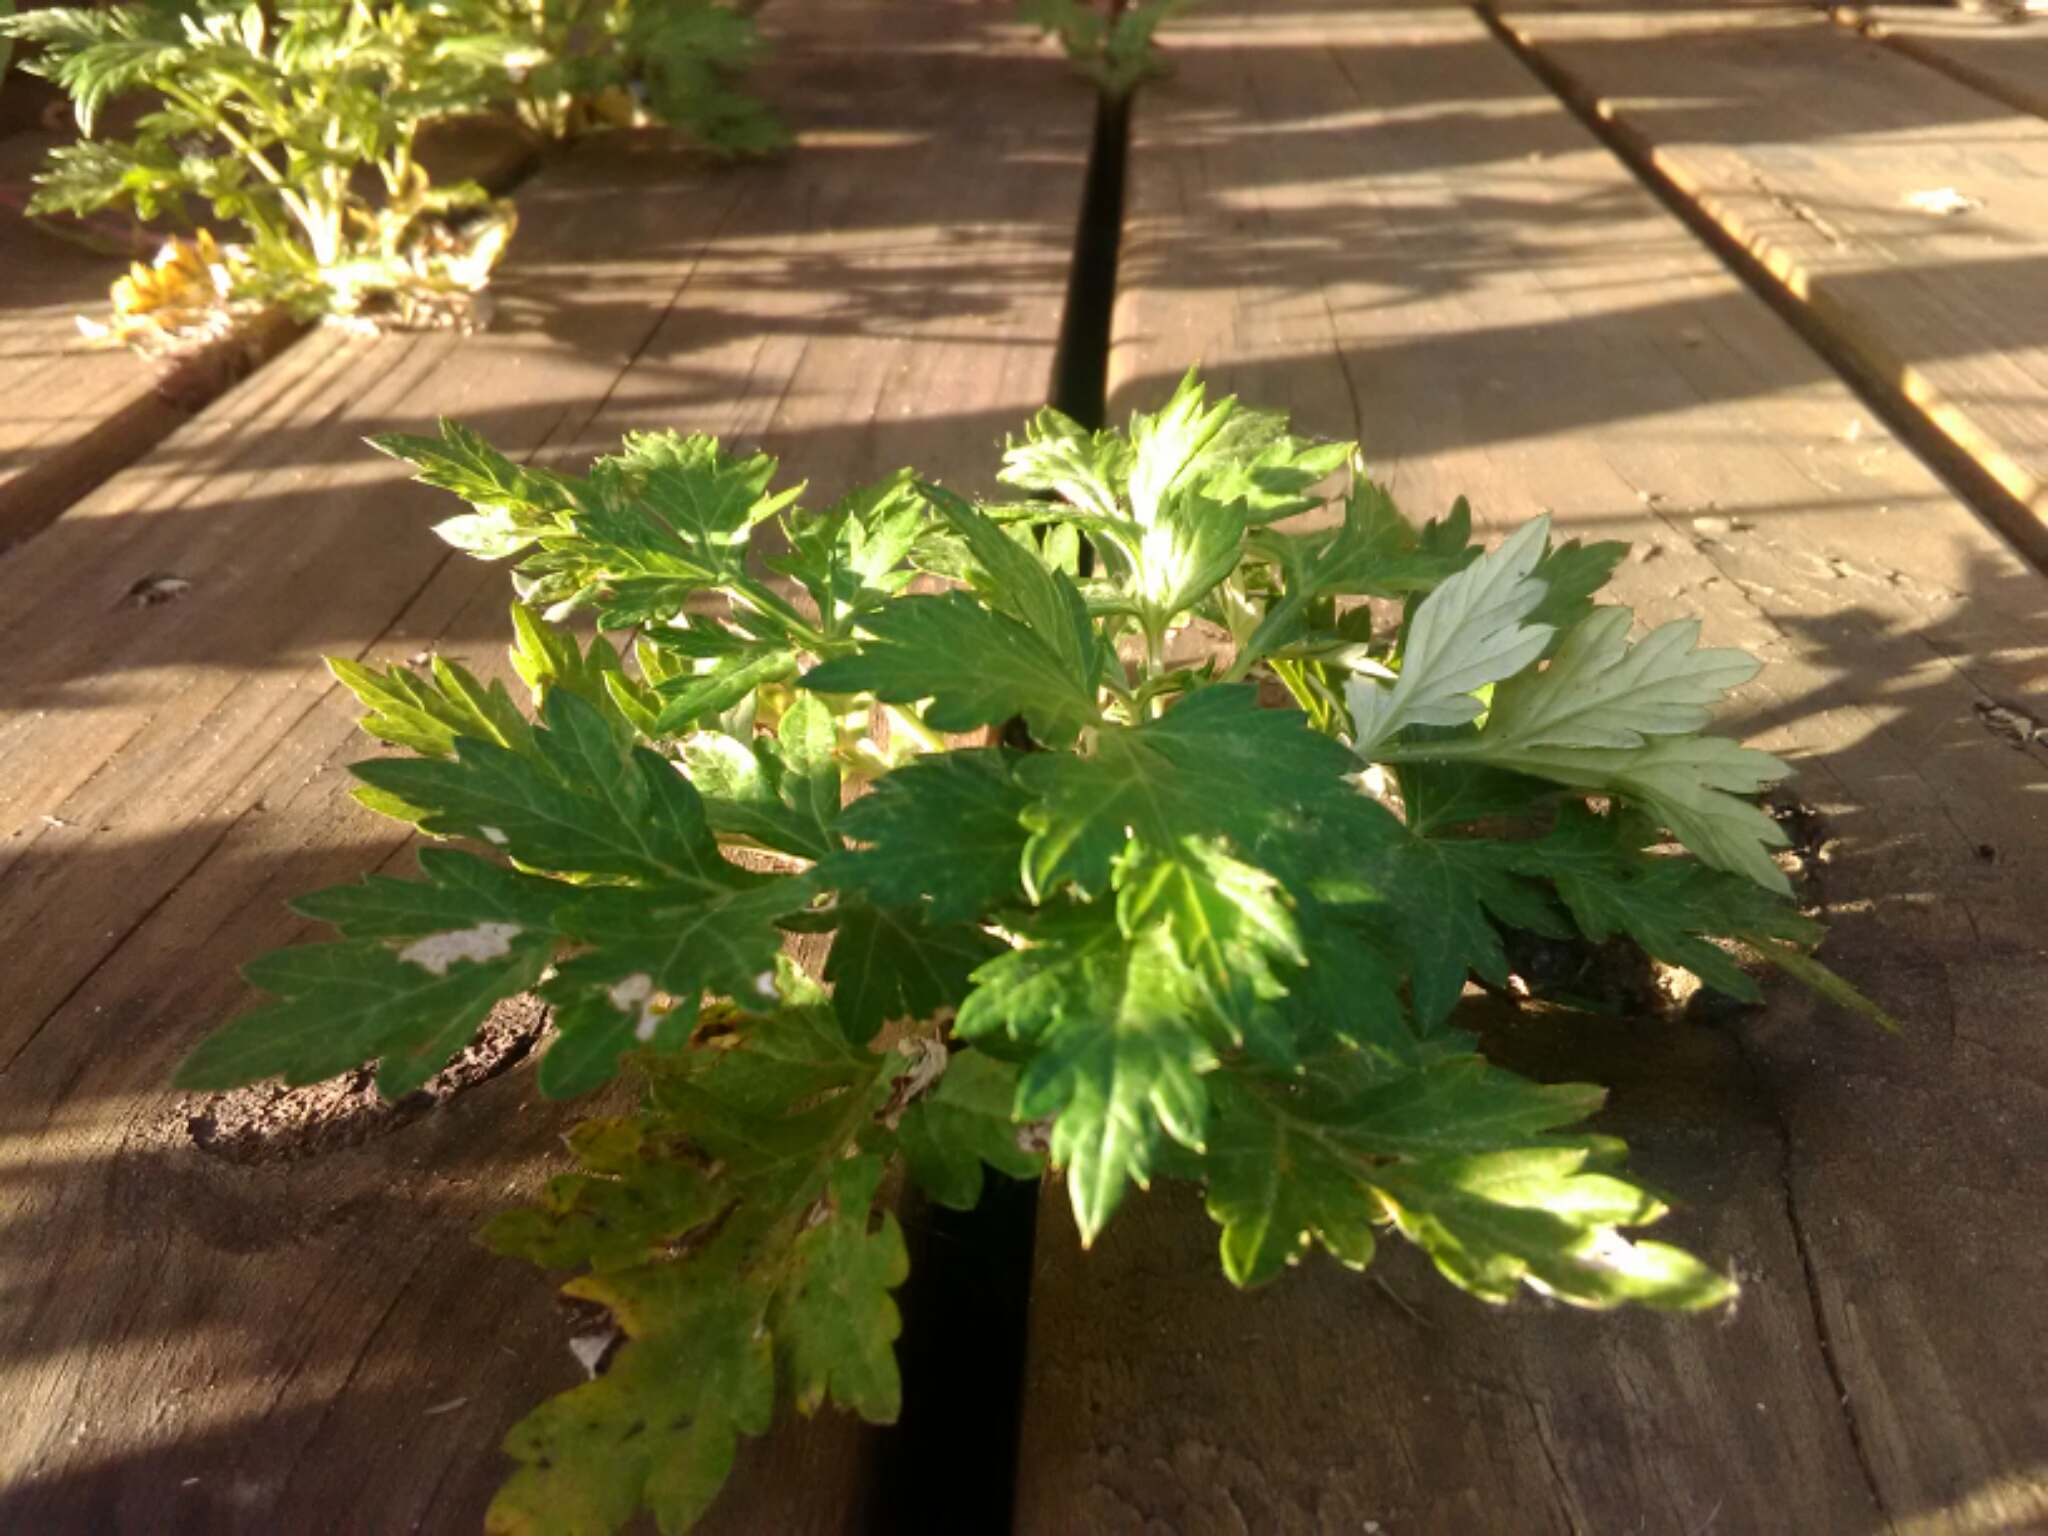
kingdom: Plantae
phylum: Tracheophyta
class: Magnoliopsida
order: Asterales
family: Asteraceae
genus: Artemisia
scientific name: Artemisia vulgaris
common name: Mugwort
